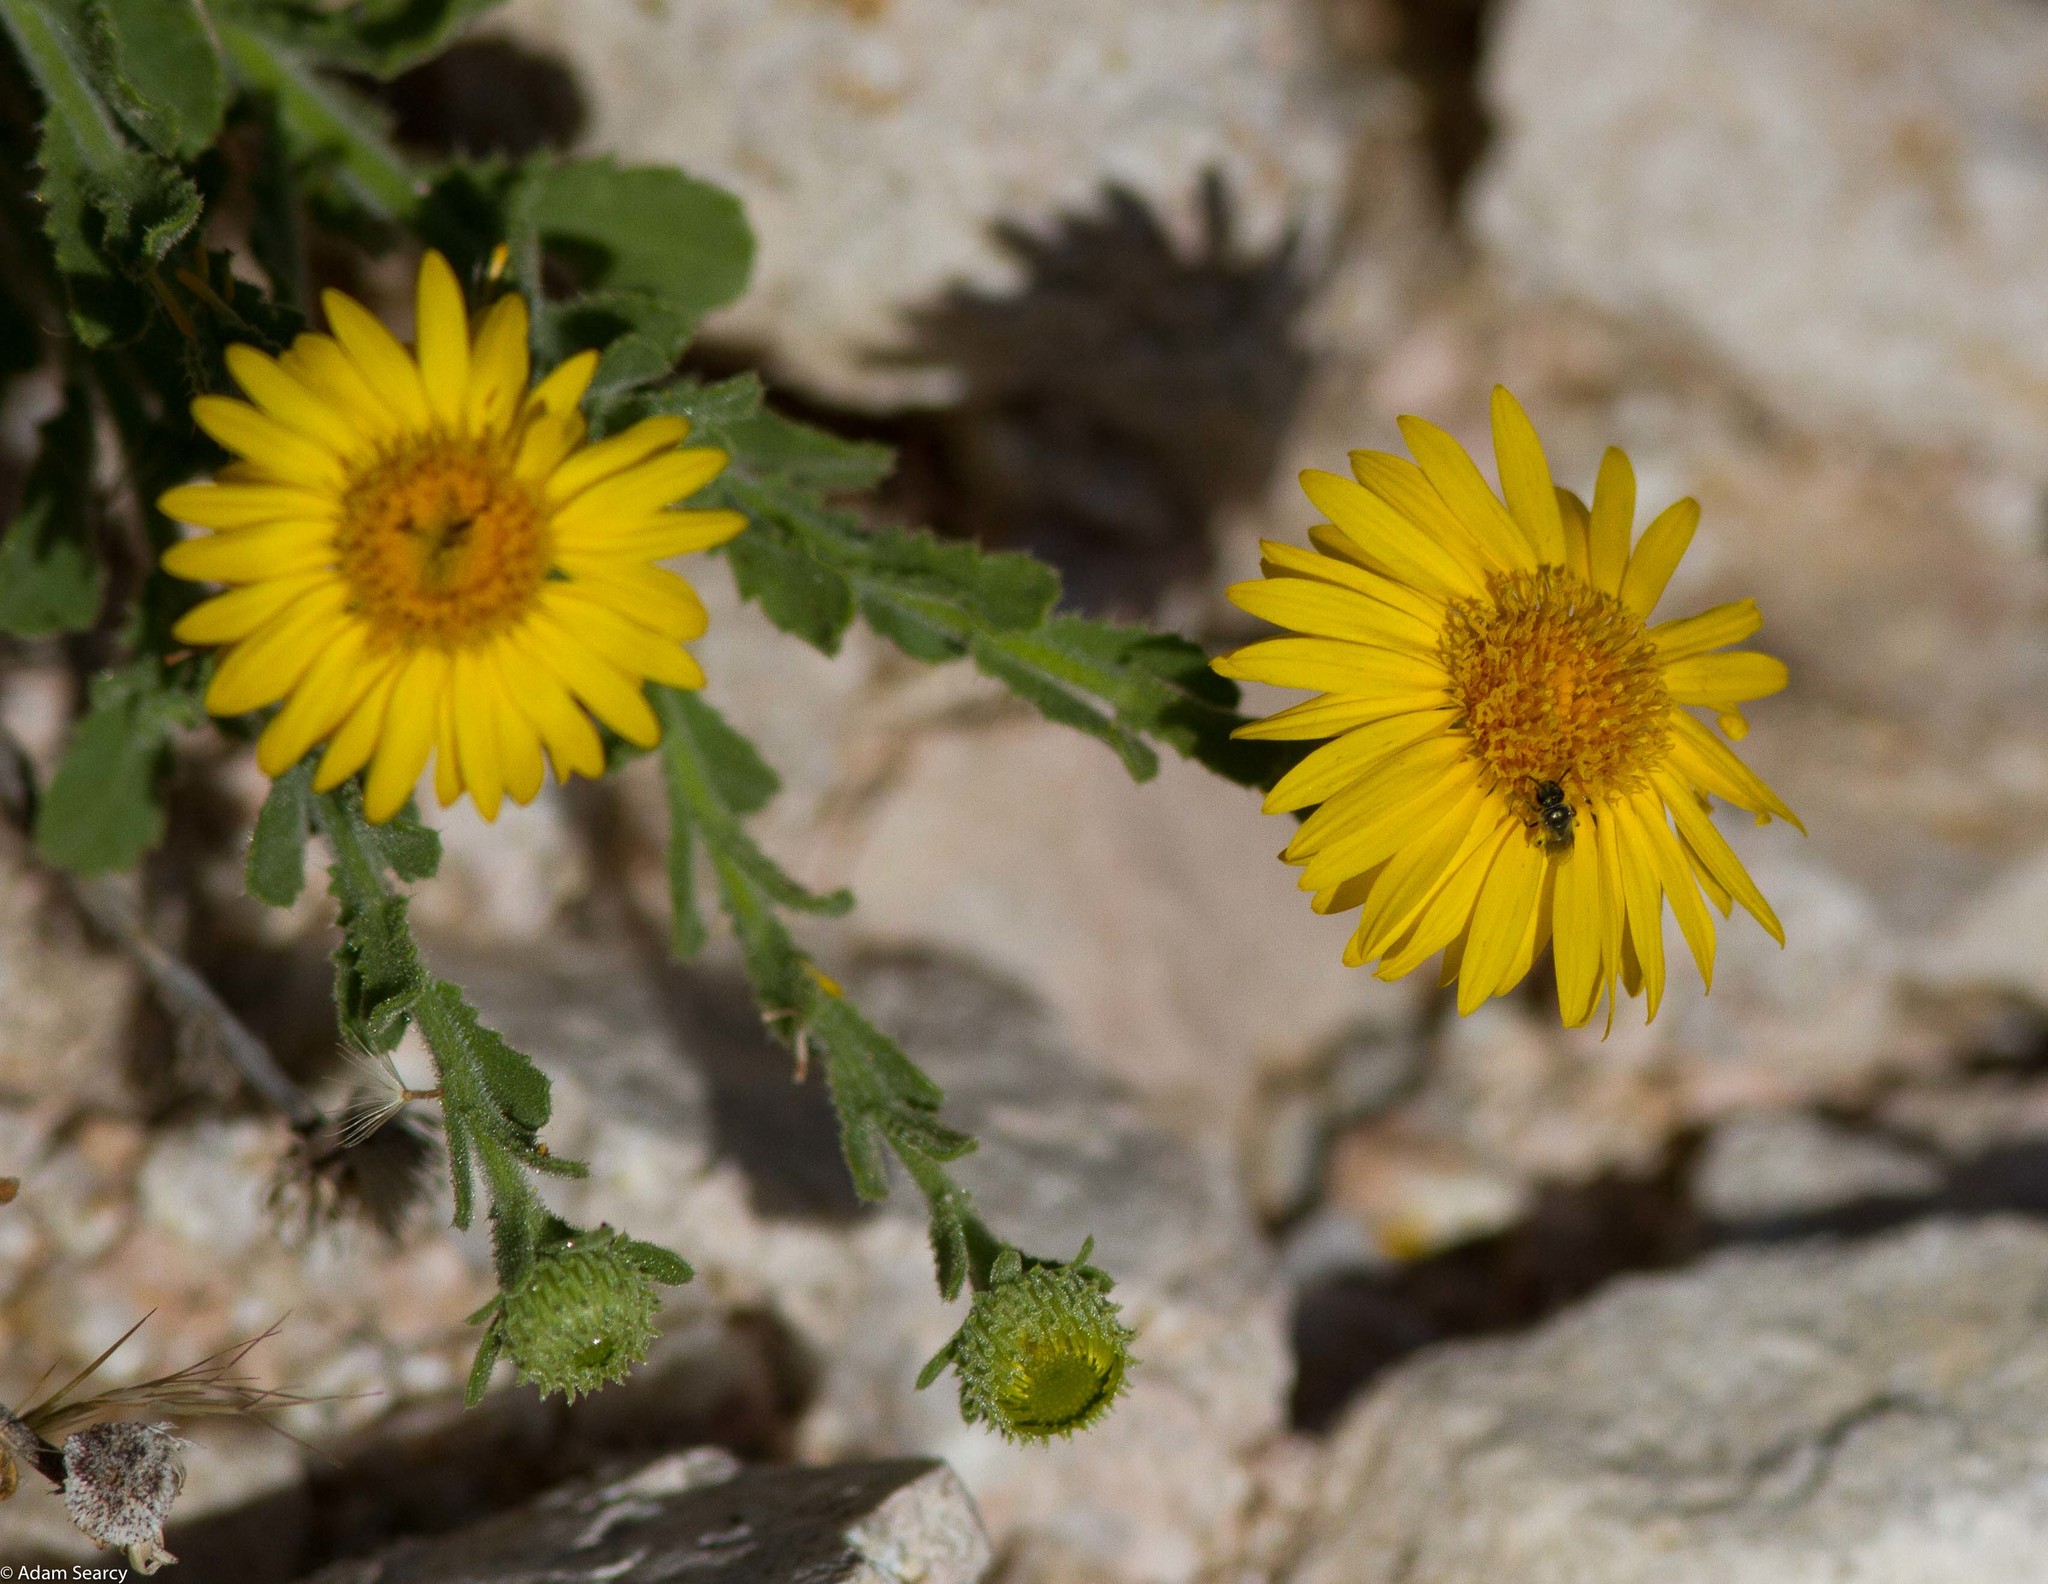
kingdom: Plantae
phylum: Tracheophyta
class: Magnoliopsida
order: Asterales
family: Asteraceae
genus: Xanthisma
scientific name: Xanthisma arenarium
